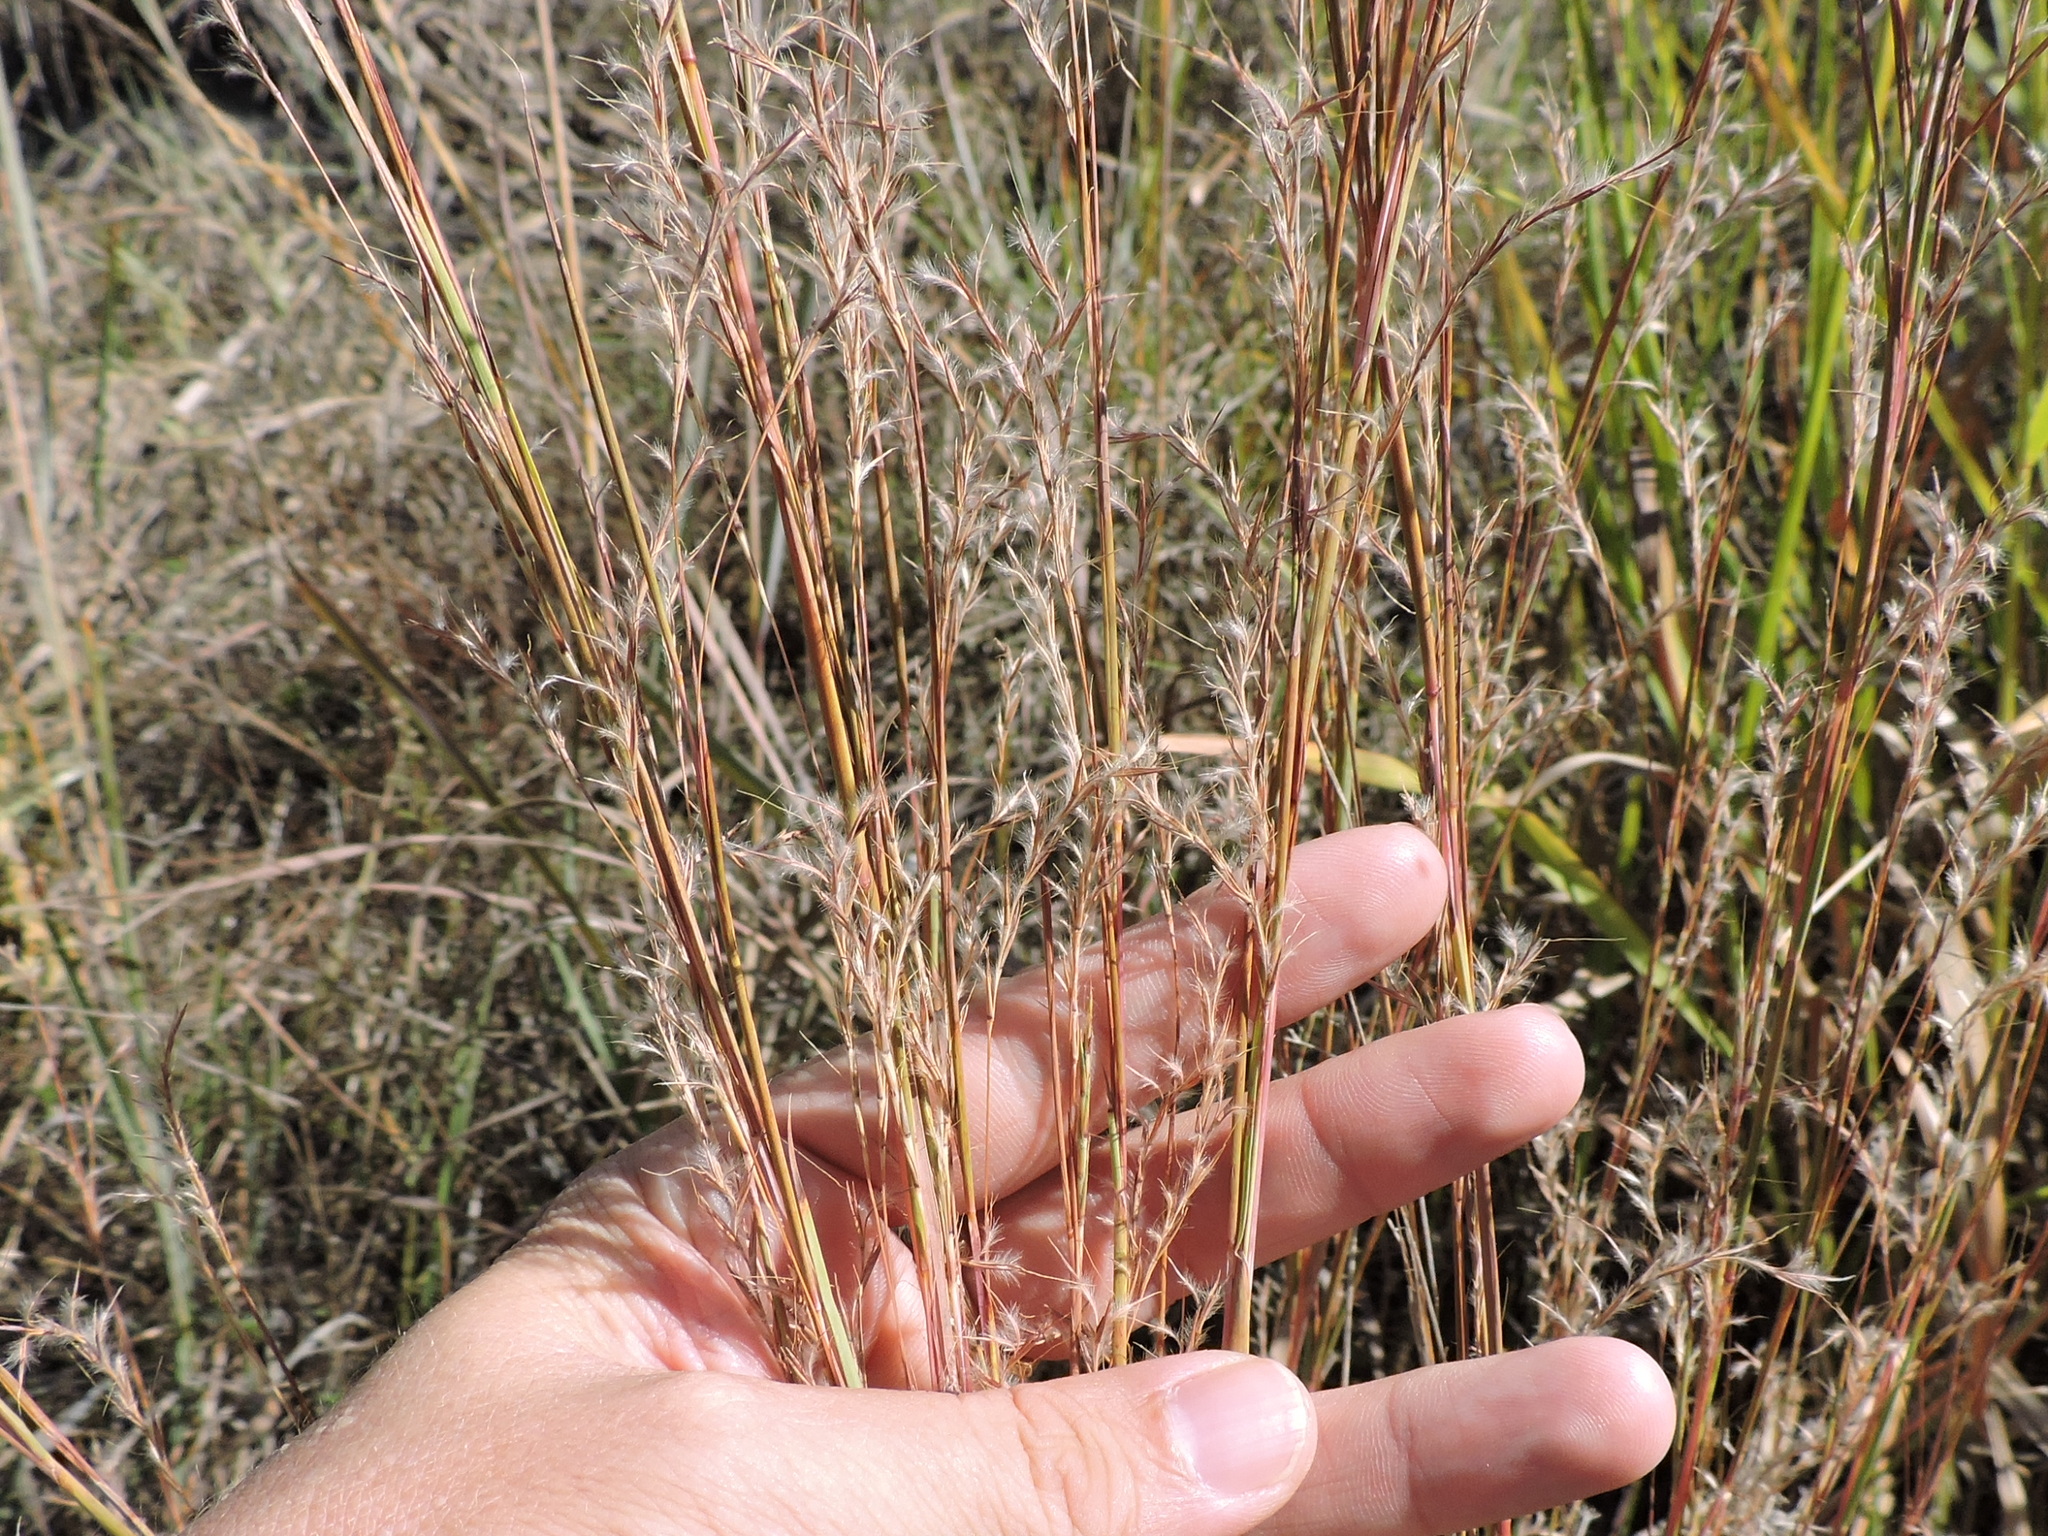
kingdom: Plantae
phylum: Tracheophyta
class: Liliopsida
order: Poales
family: Poaceae
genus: Schizachyrium
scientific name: Schizachyrium scoparium
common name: Little bluestem
